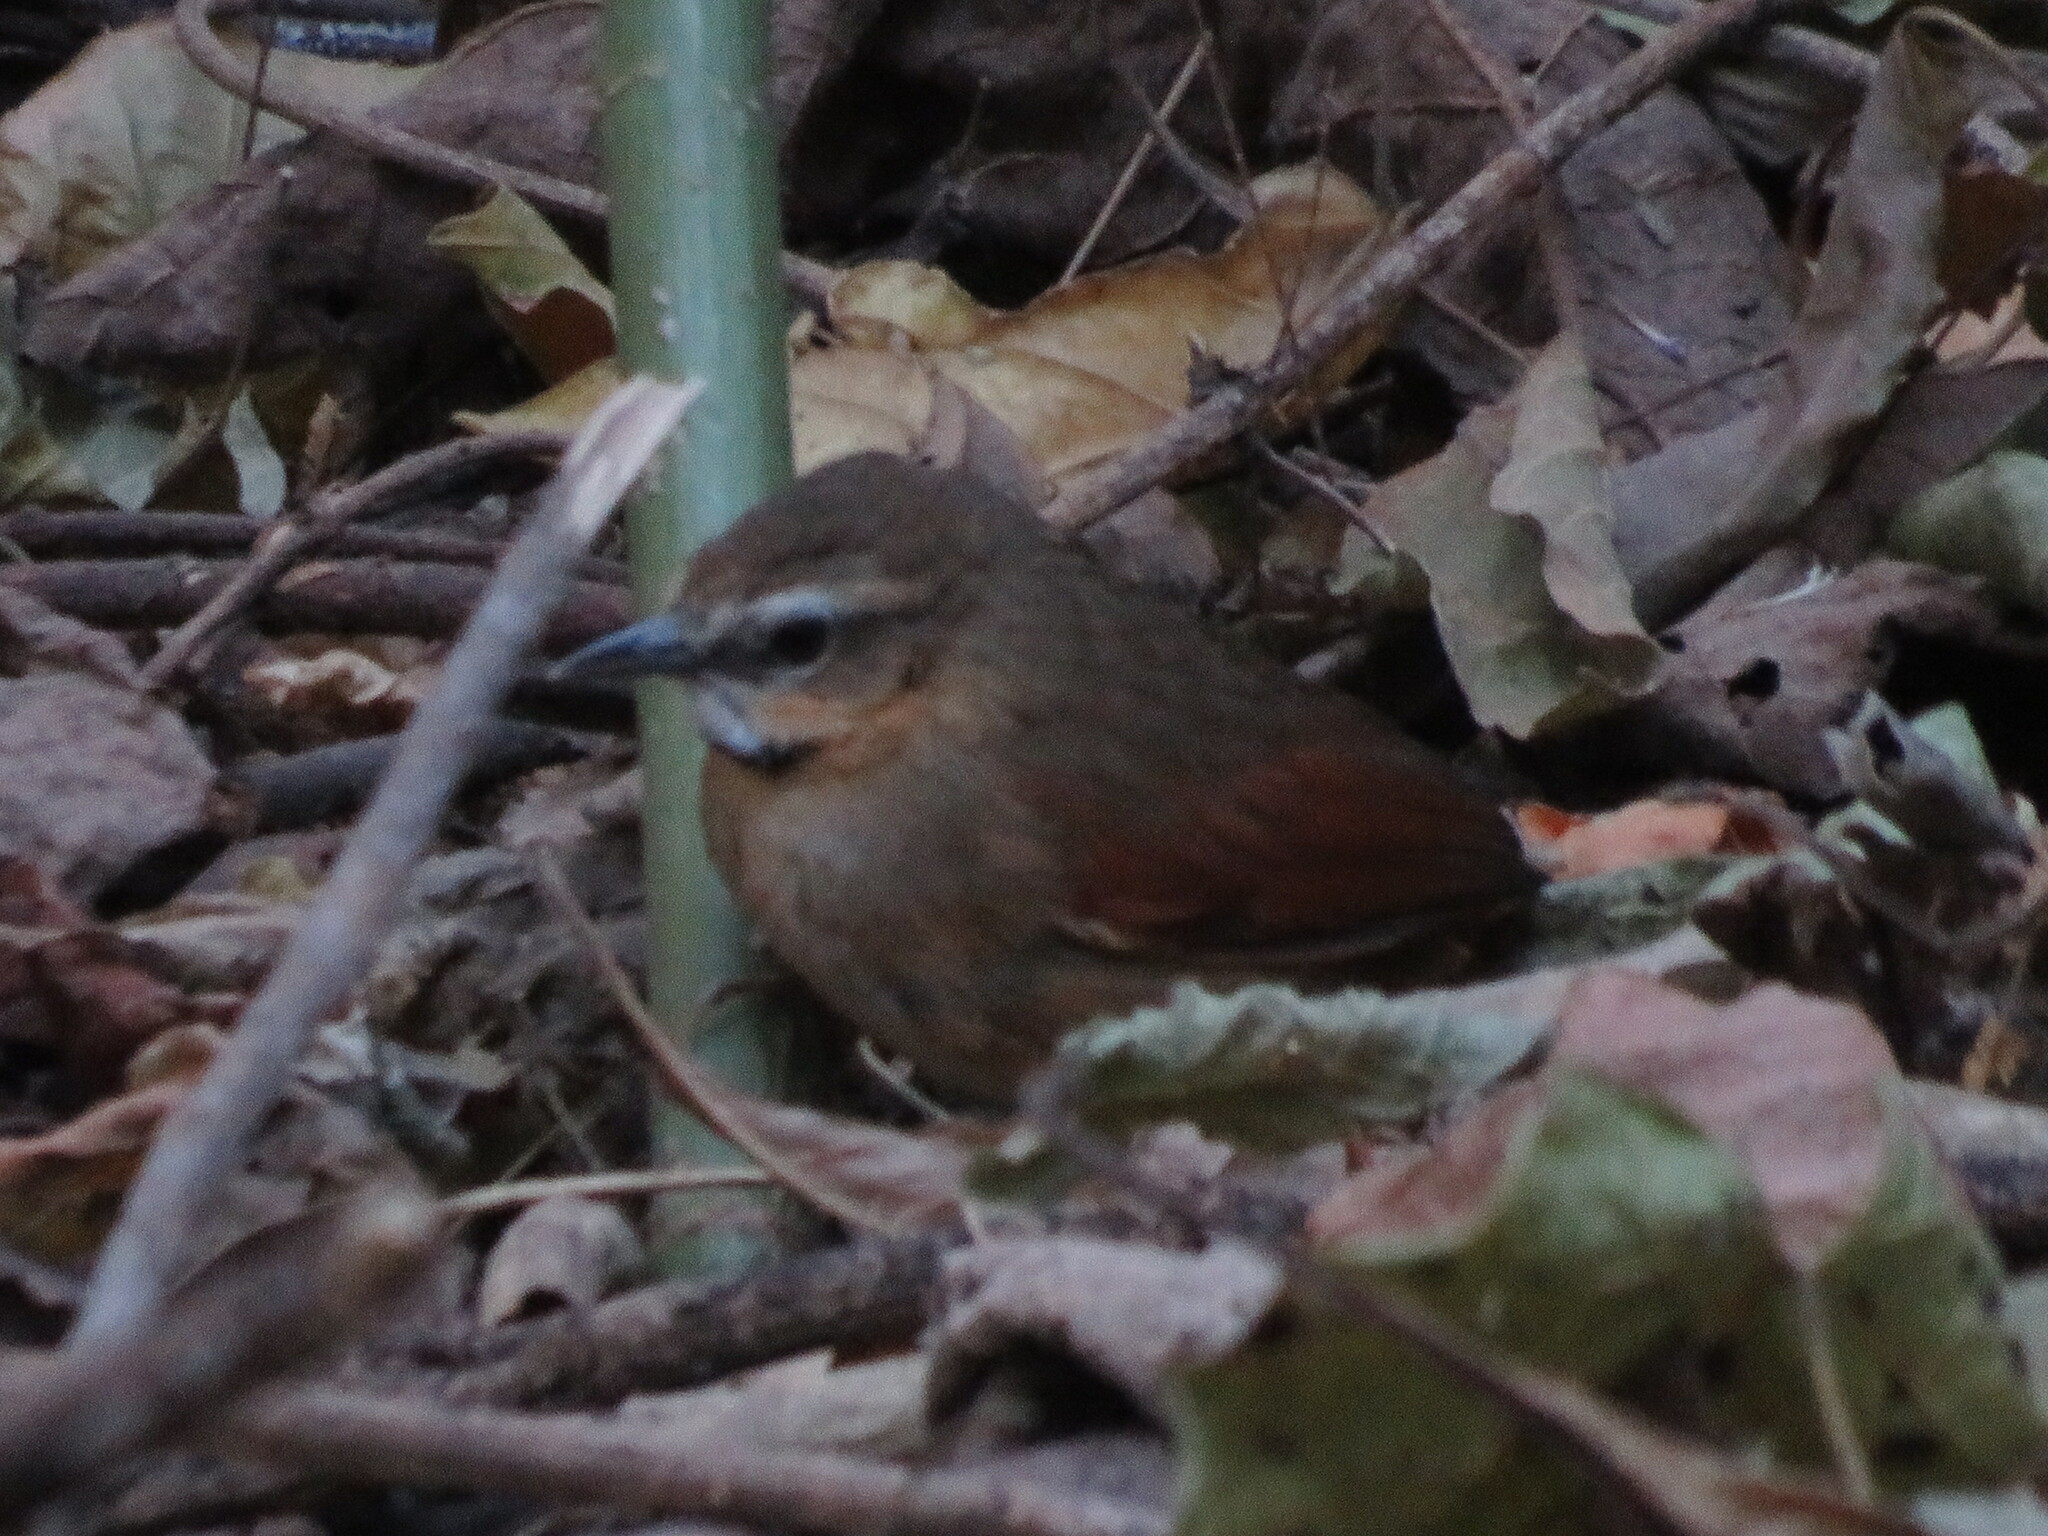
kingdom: Animalia
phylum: Chordata
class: Aves
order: Passeriformes
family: Furnariidae
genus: Synallaxis
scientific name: Synallaxis scutata
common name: Ochre-cheeked spinetail
